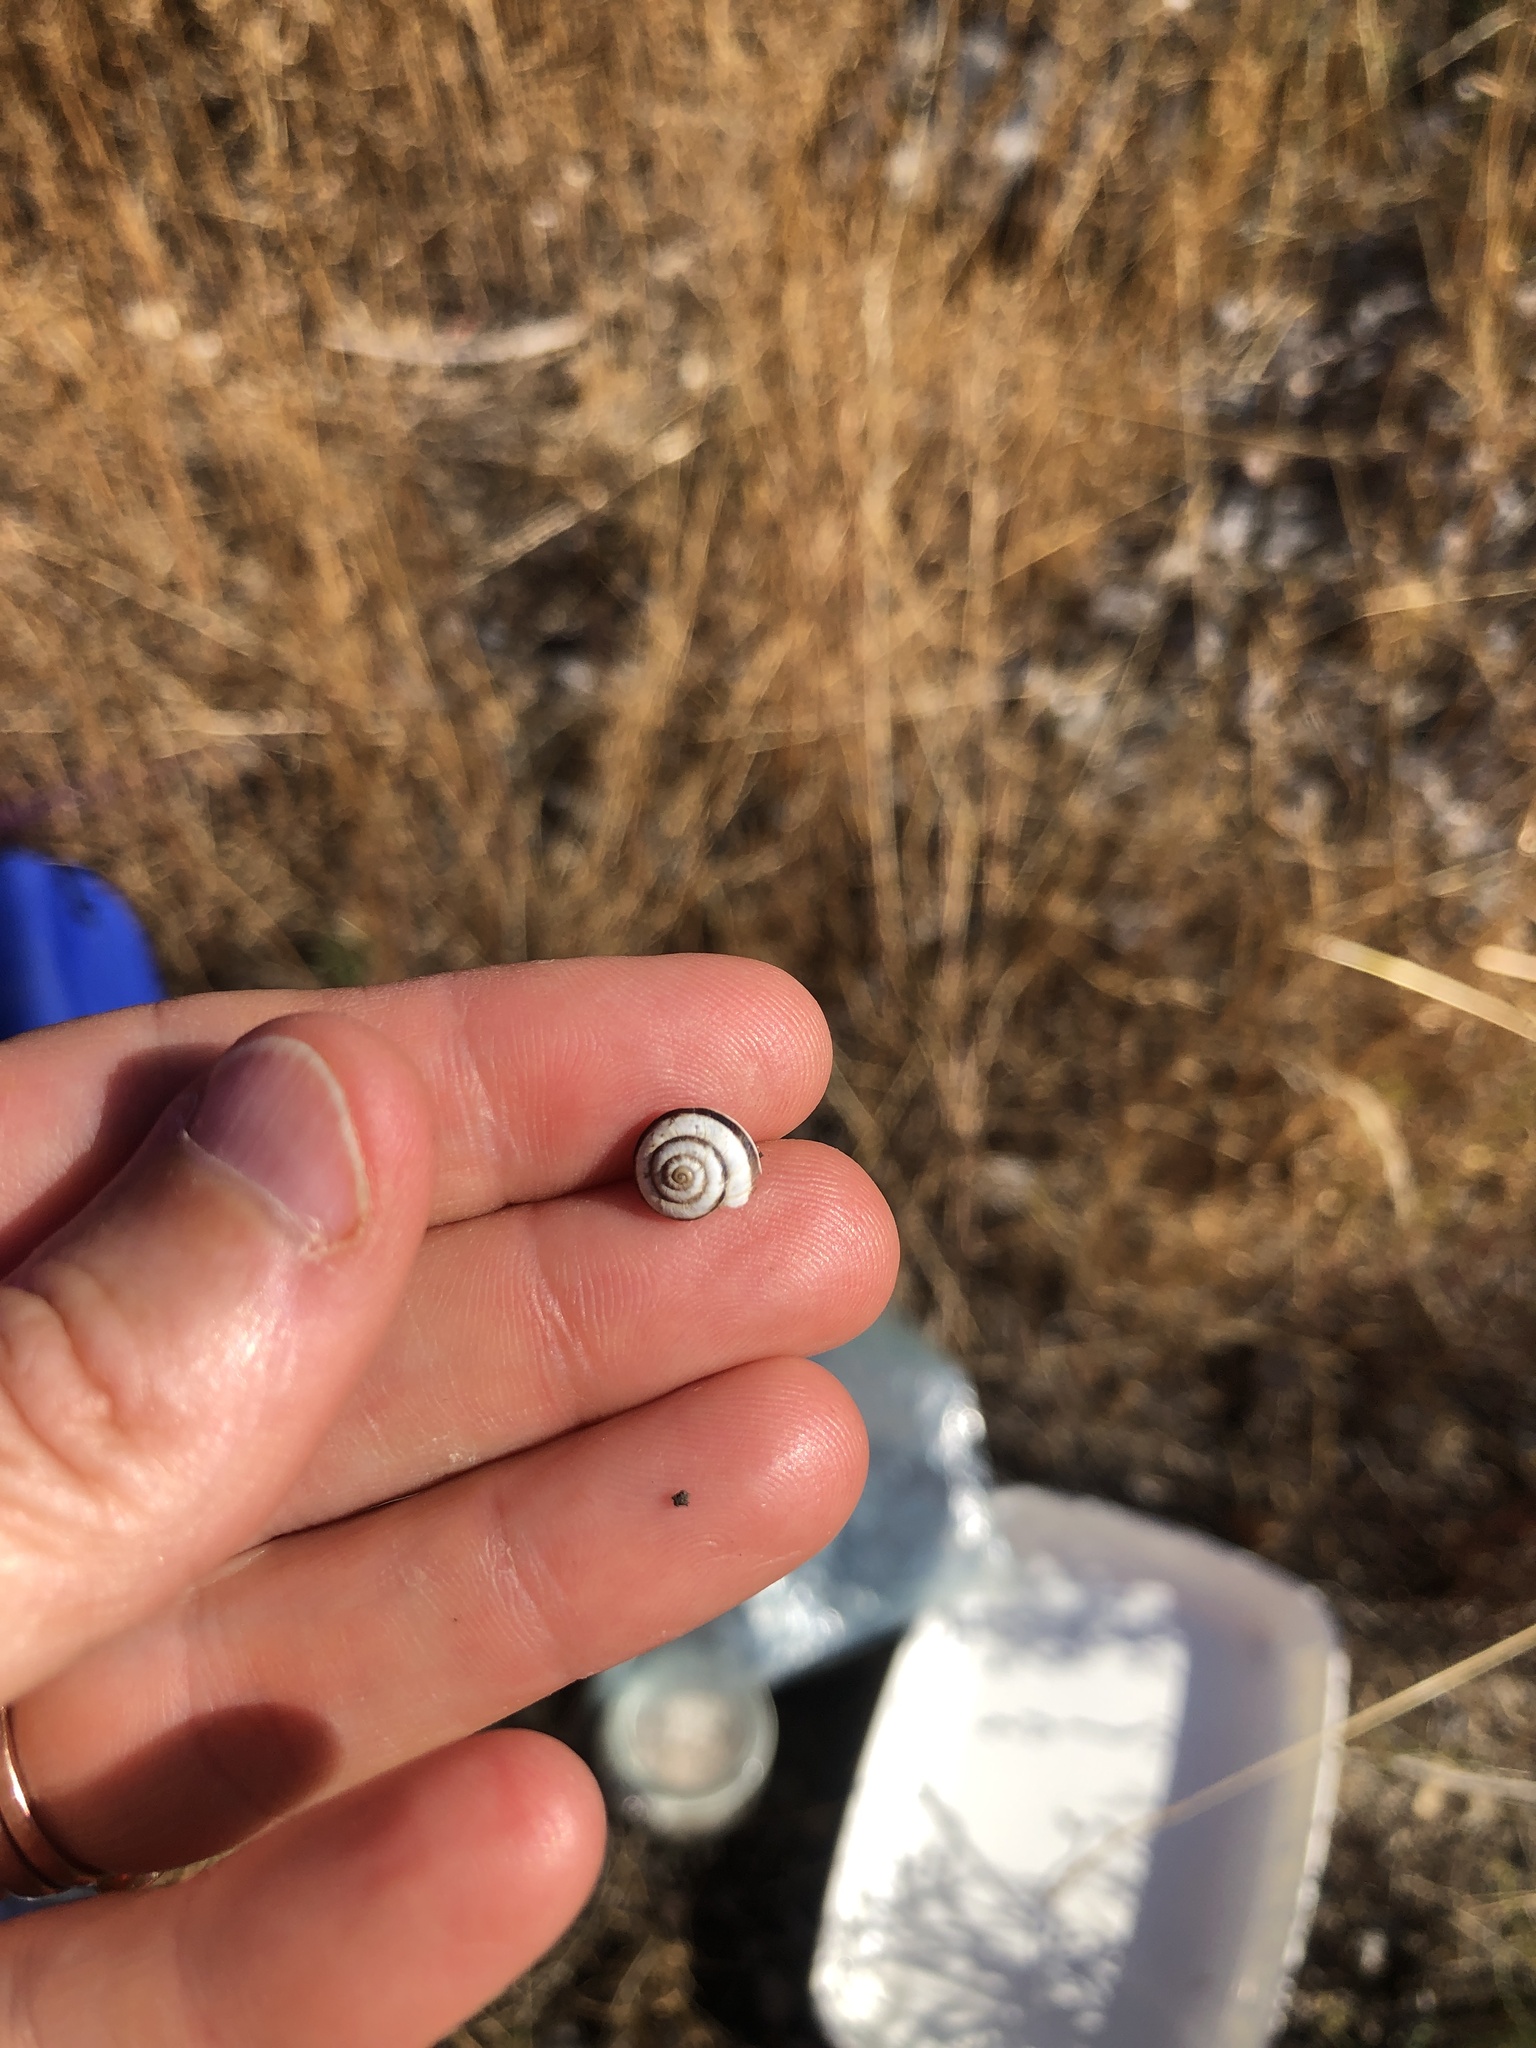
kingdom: Animalia
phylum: Mollusca
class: Gastropoda
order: Stylommatophora
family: Geomitridae
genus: Cernuella
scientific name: Cernuella virgata
